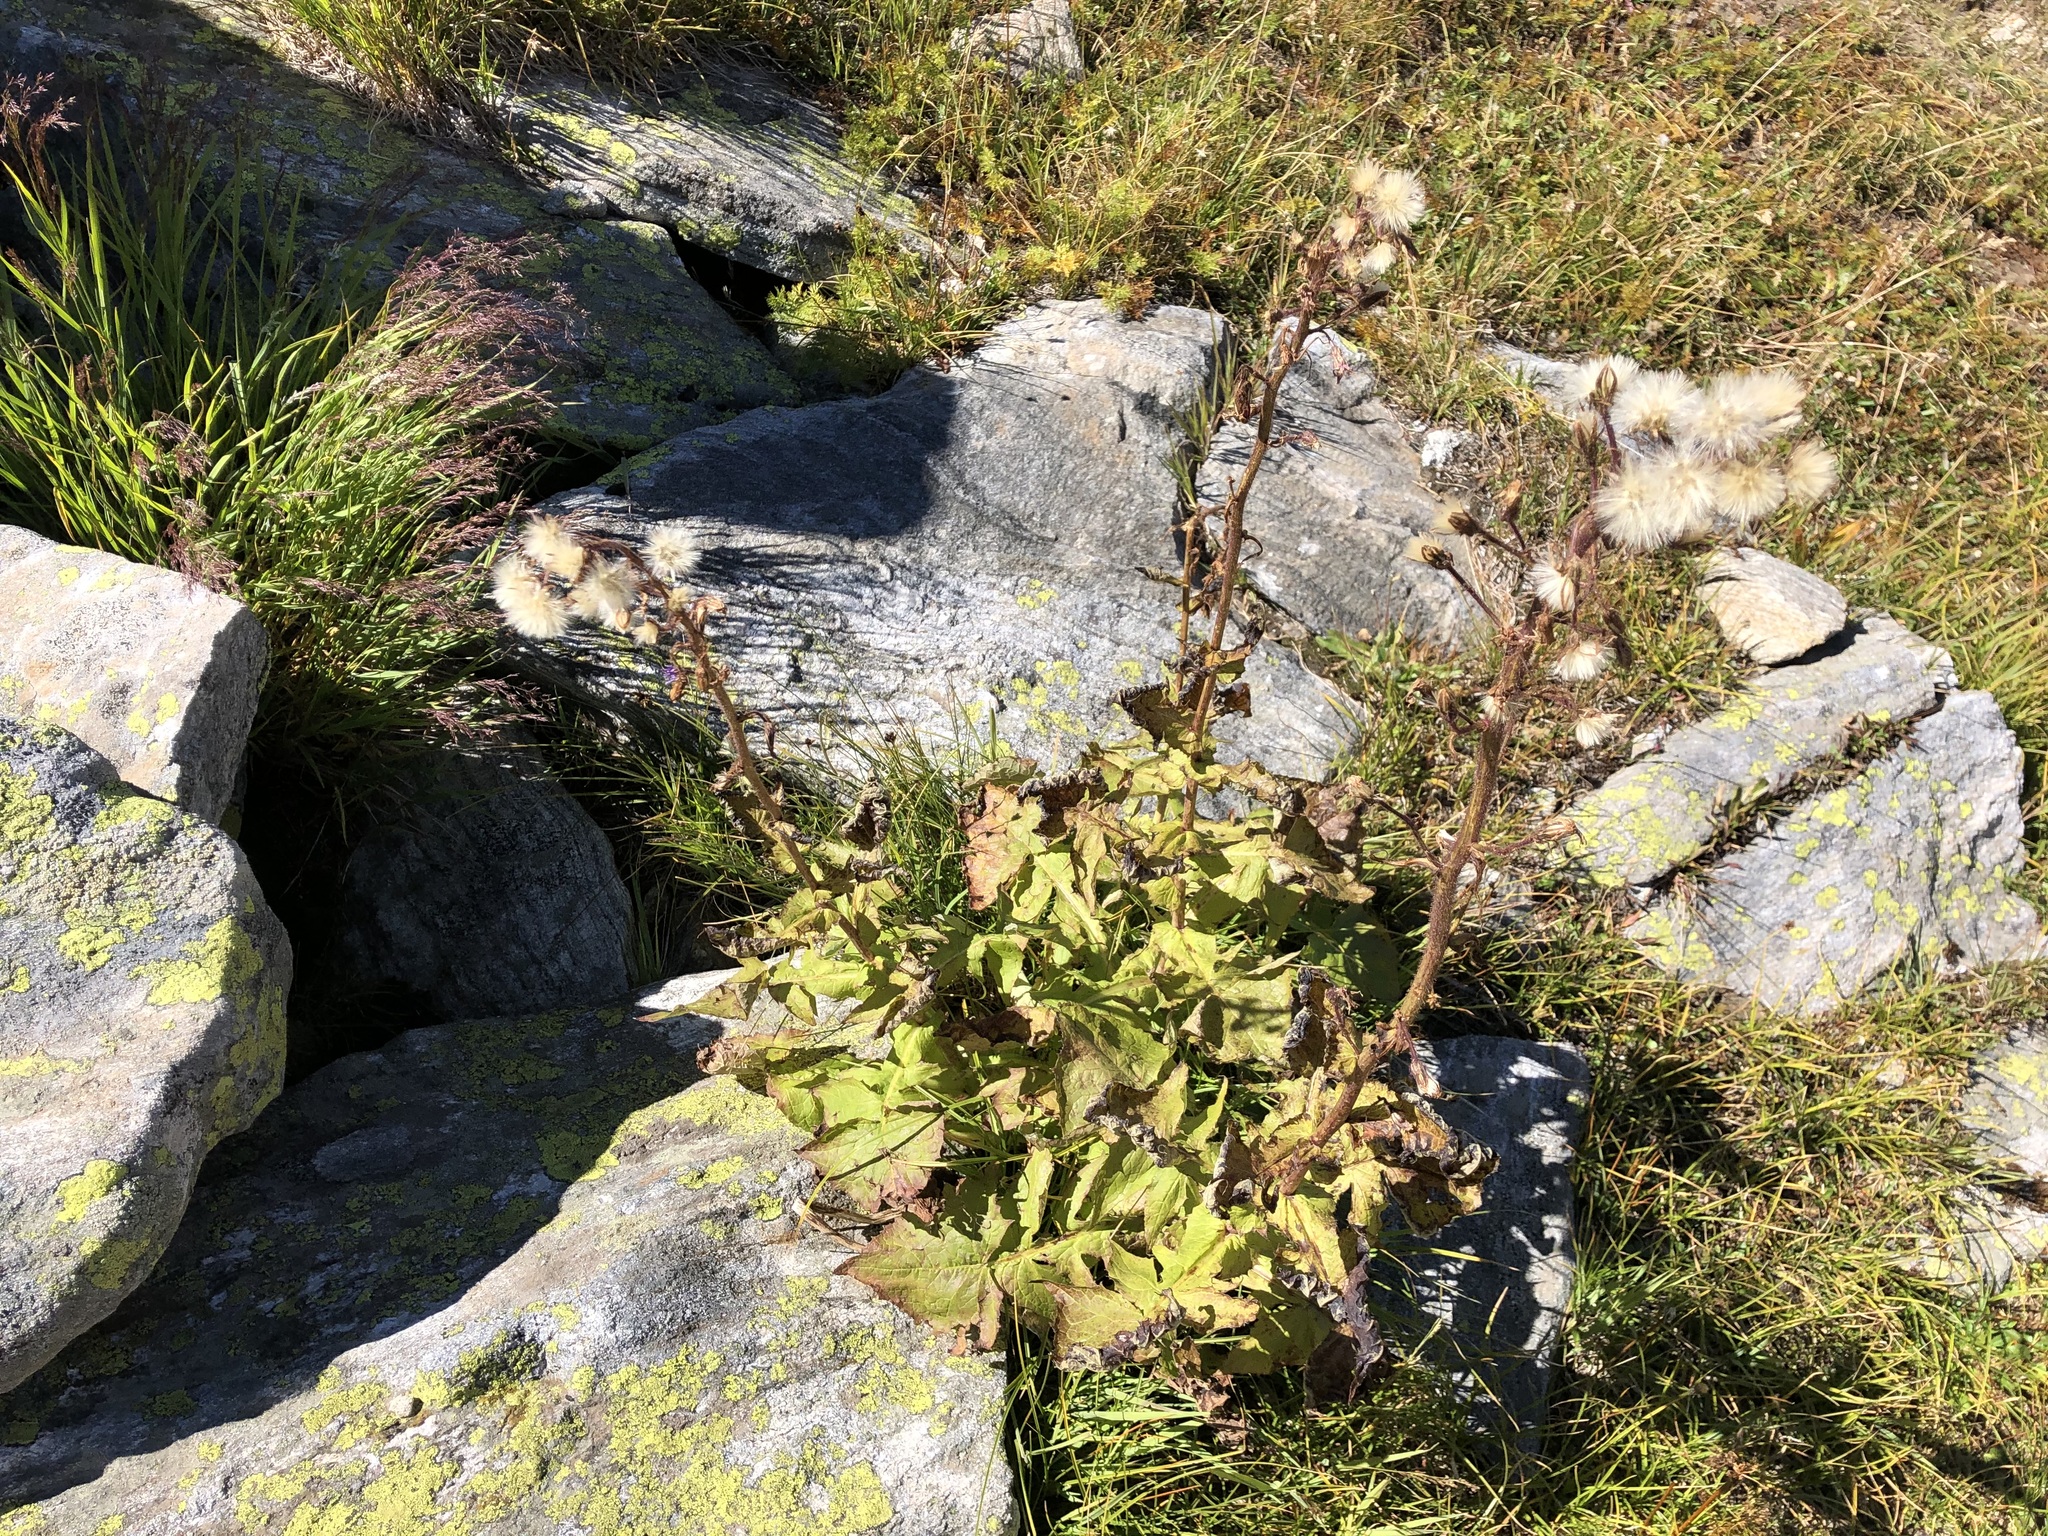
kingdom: Plantae
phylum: Tracheophyta
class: Magnoliopsida
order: Asterales
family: Asteraceae
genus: Cicerbita
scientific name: Cicerbita alpina
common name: Alpine blue-sow-thistle
